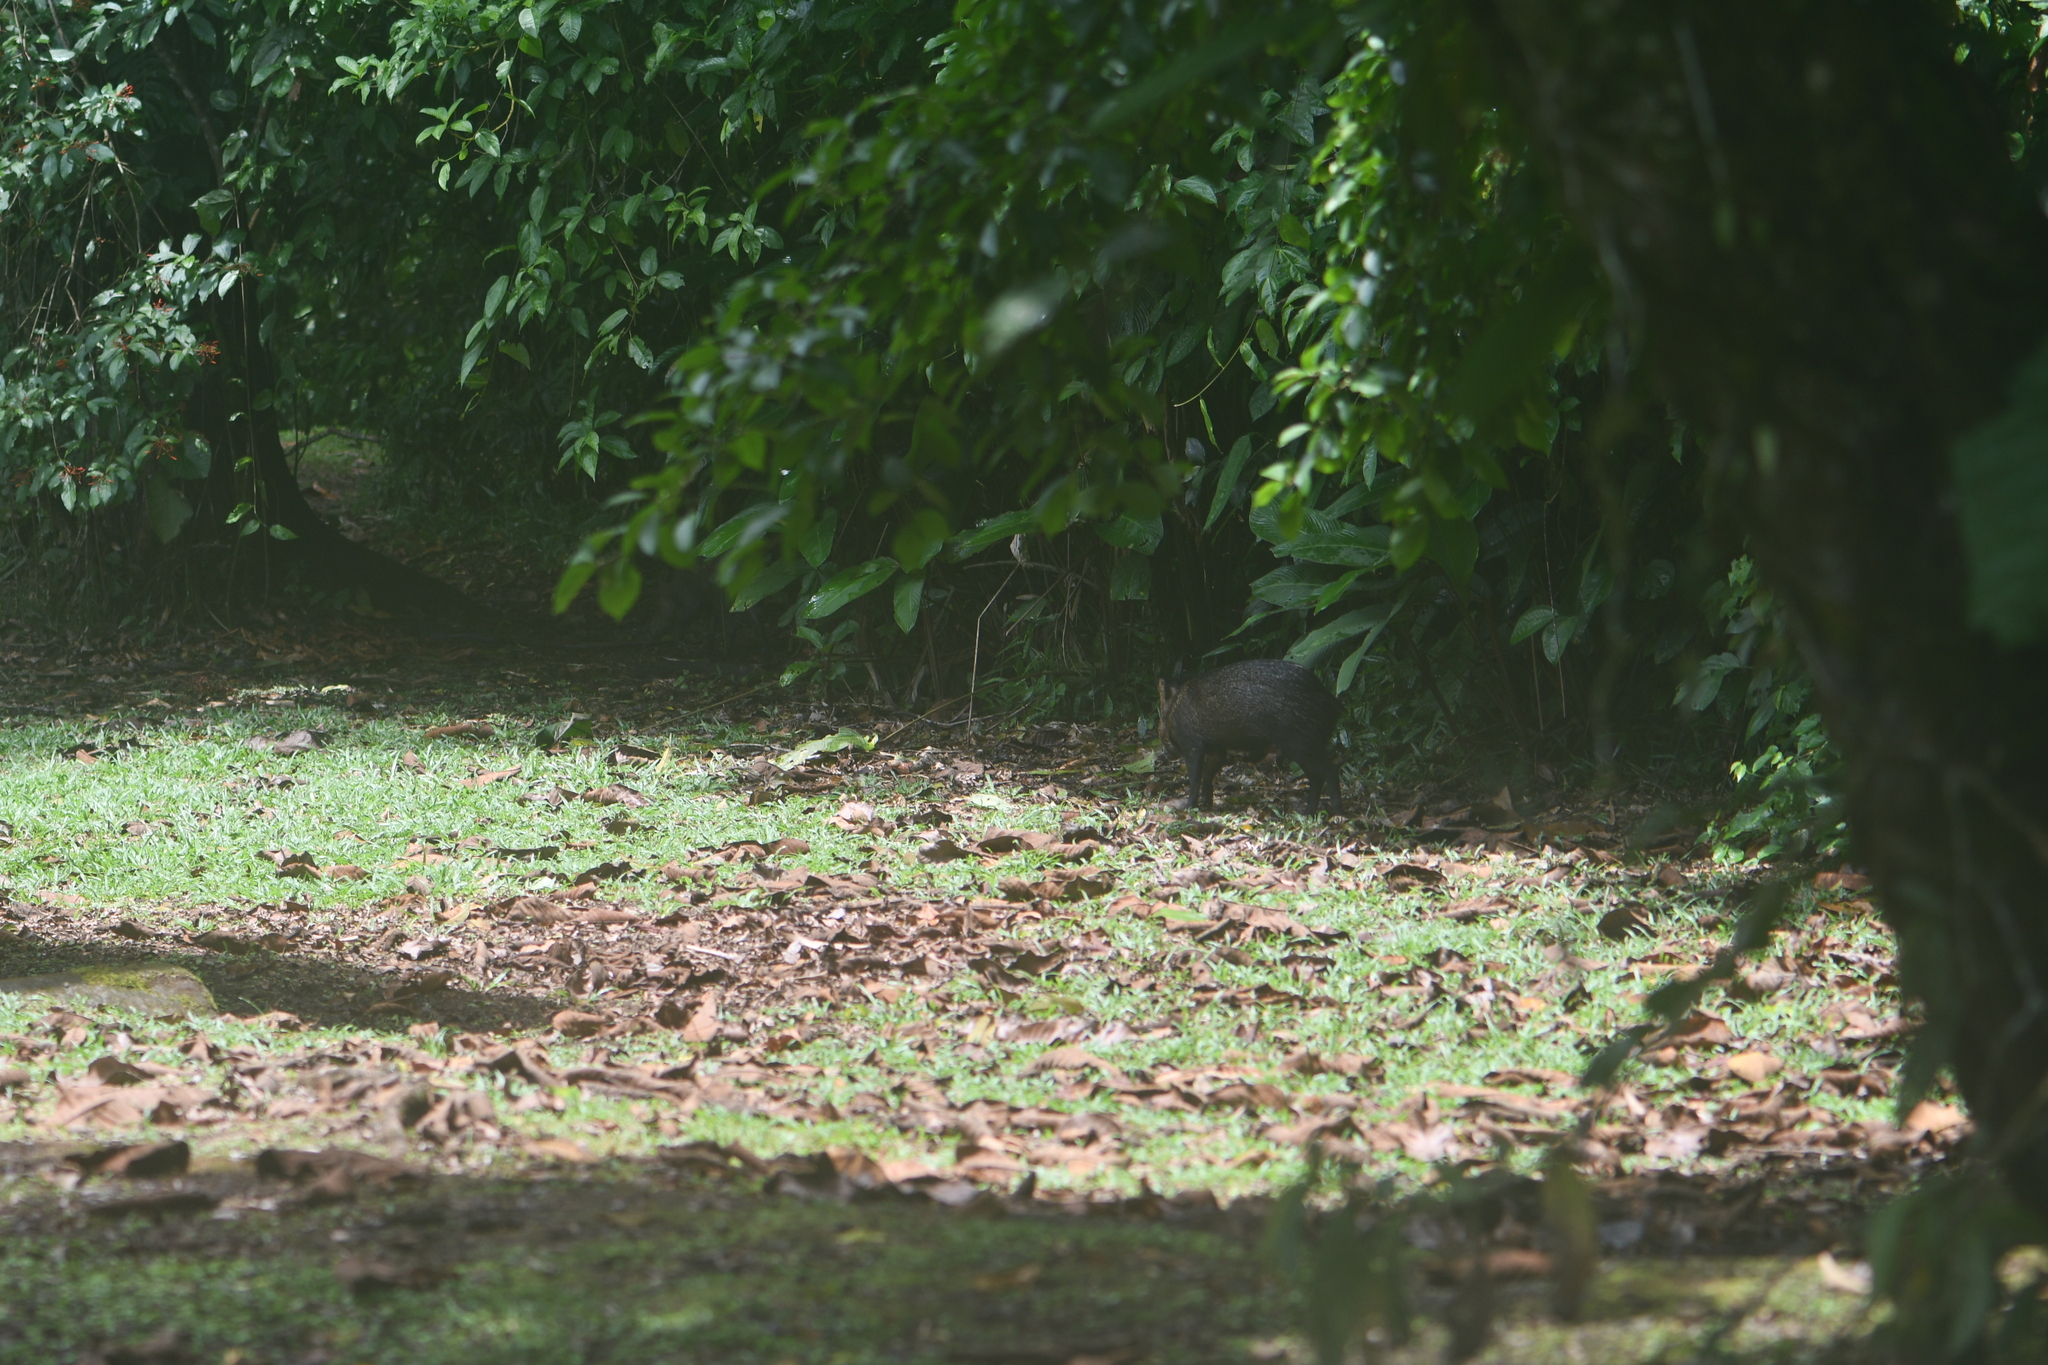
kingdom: Animalia
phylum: Chordata
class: Mammalia
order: Artiodactyla
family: Tayassuidae
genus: Pecari
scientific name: Pecari tajacu
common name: Collared peccary
